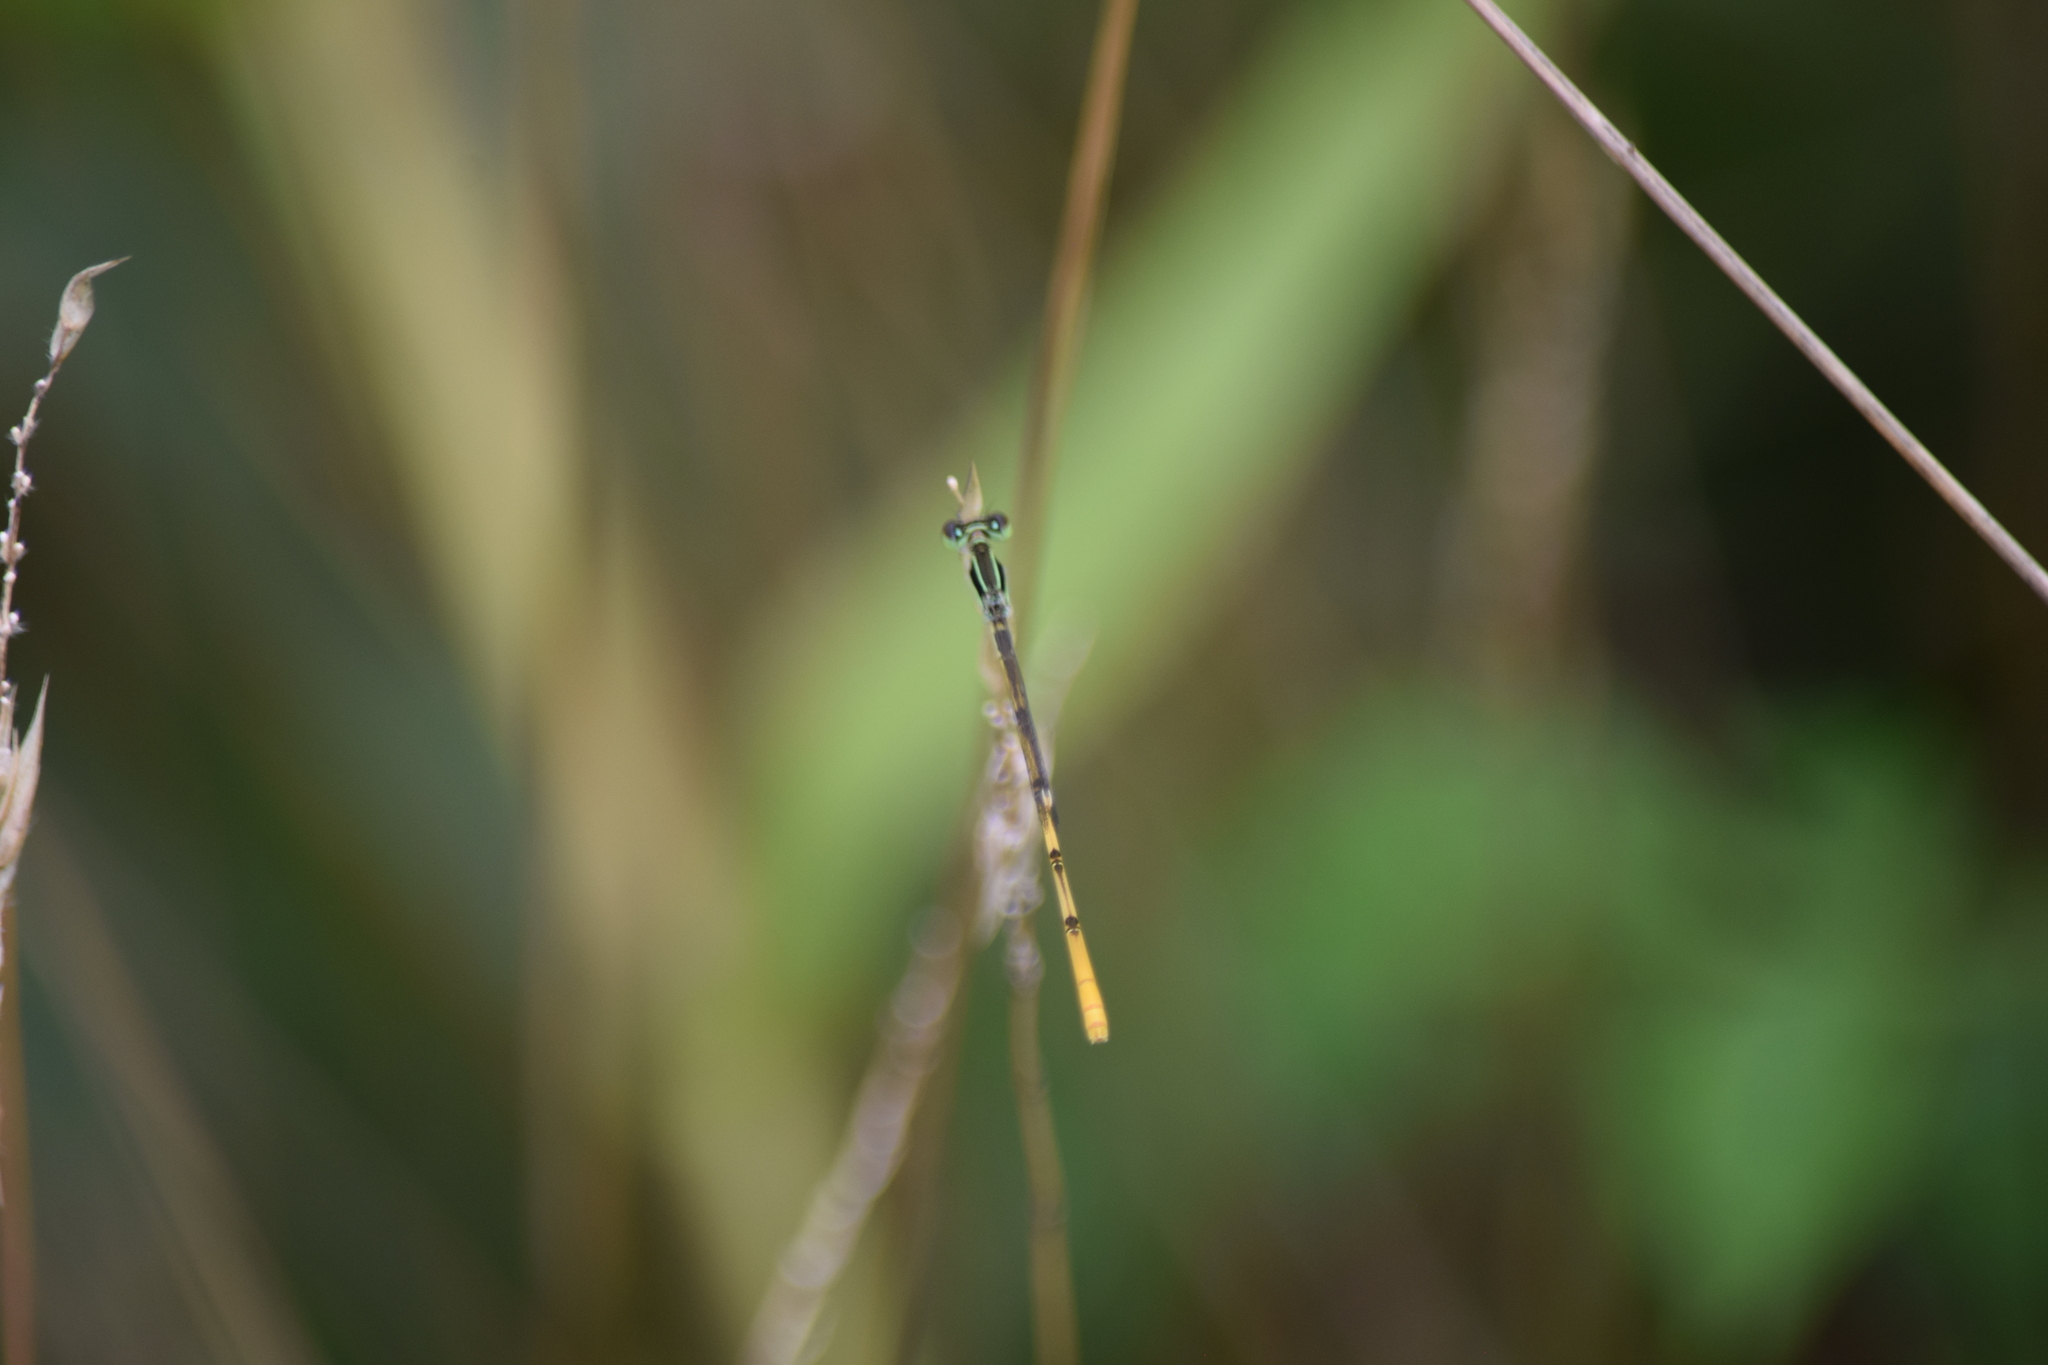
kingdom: Animalia
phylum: Arthropoda
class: Insecta
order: Odonata
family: Coenagrionidae
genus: Ischnura
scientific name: Ischnura hastata
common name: Citrine forktail
